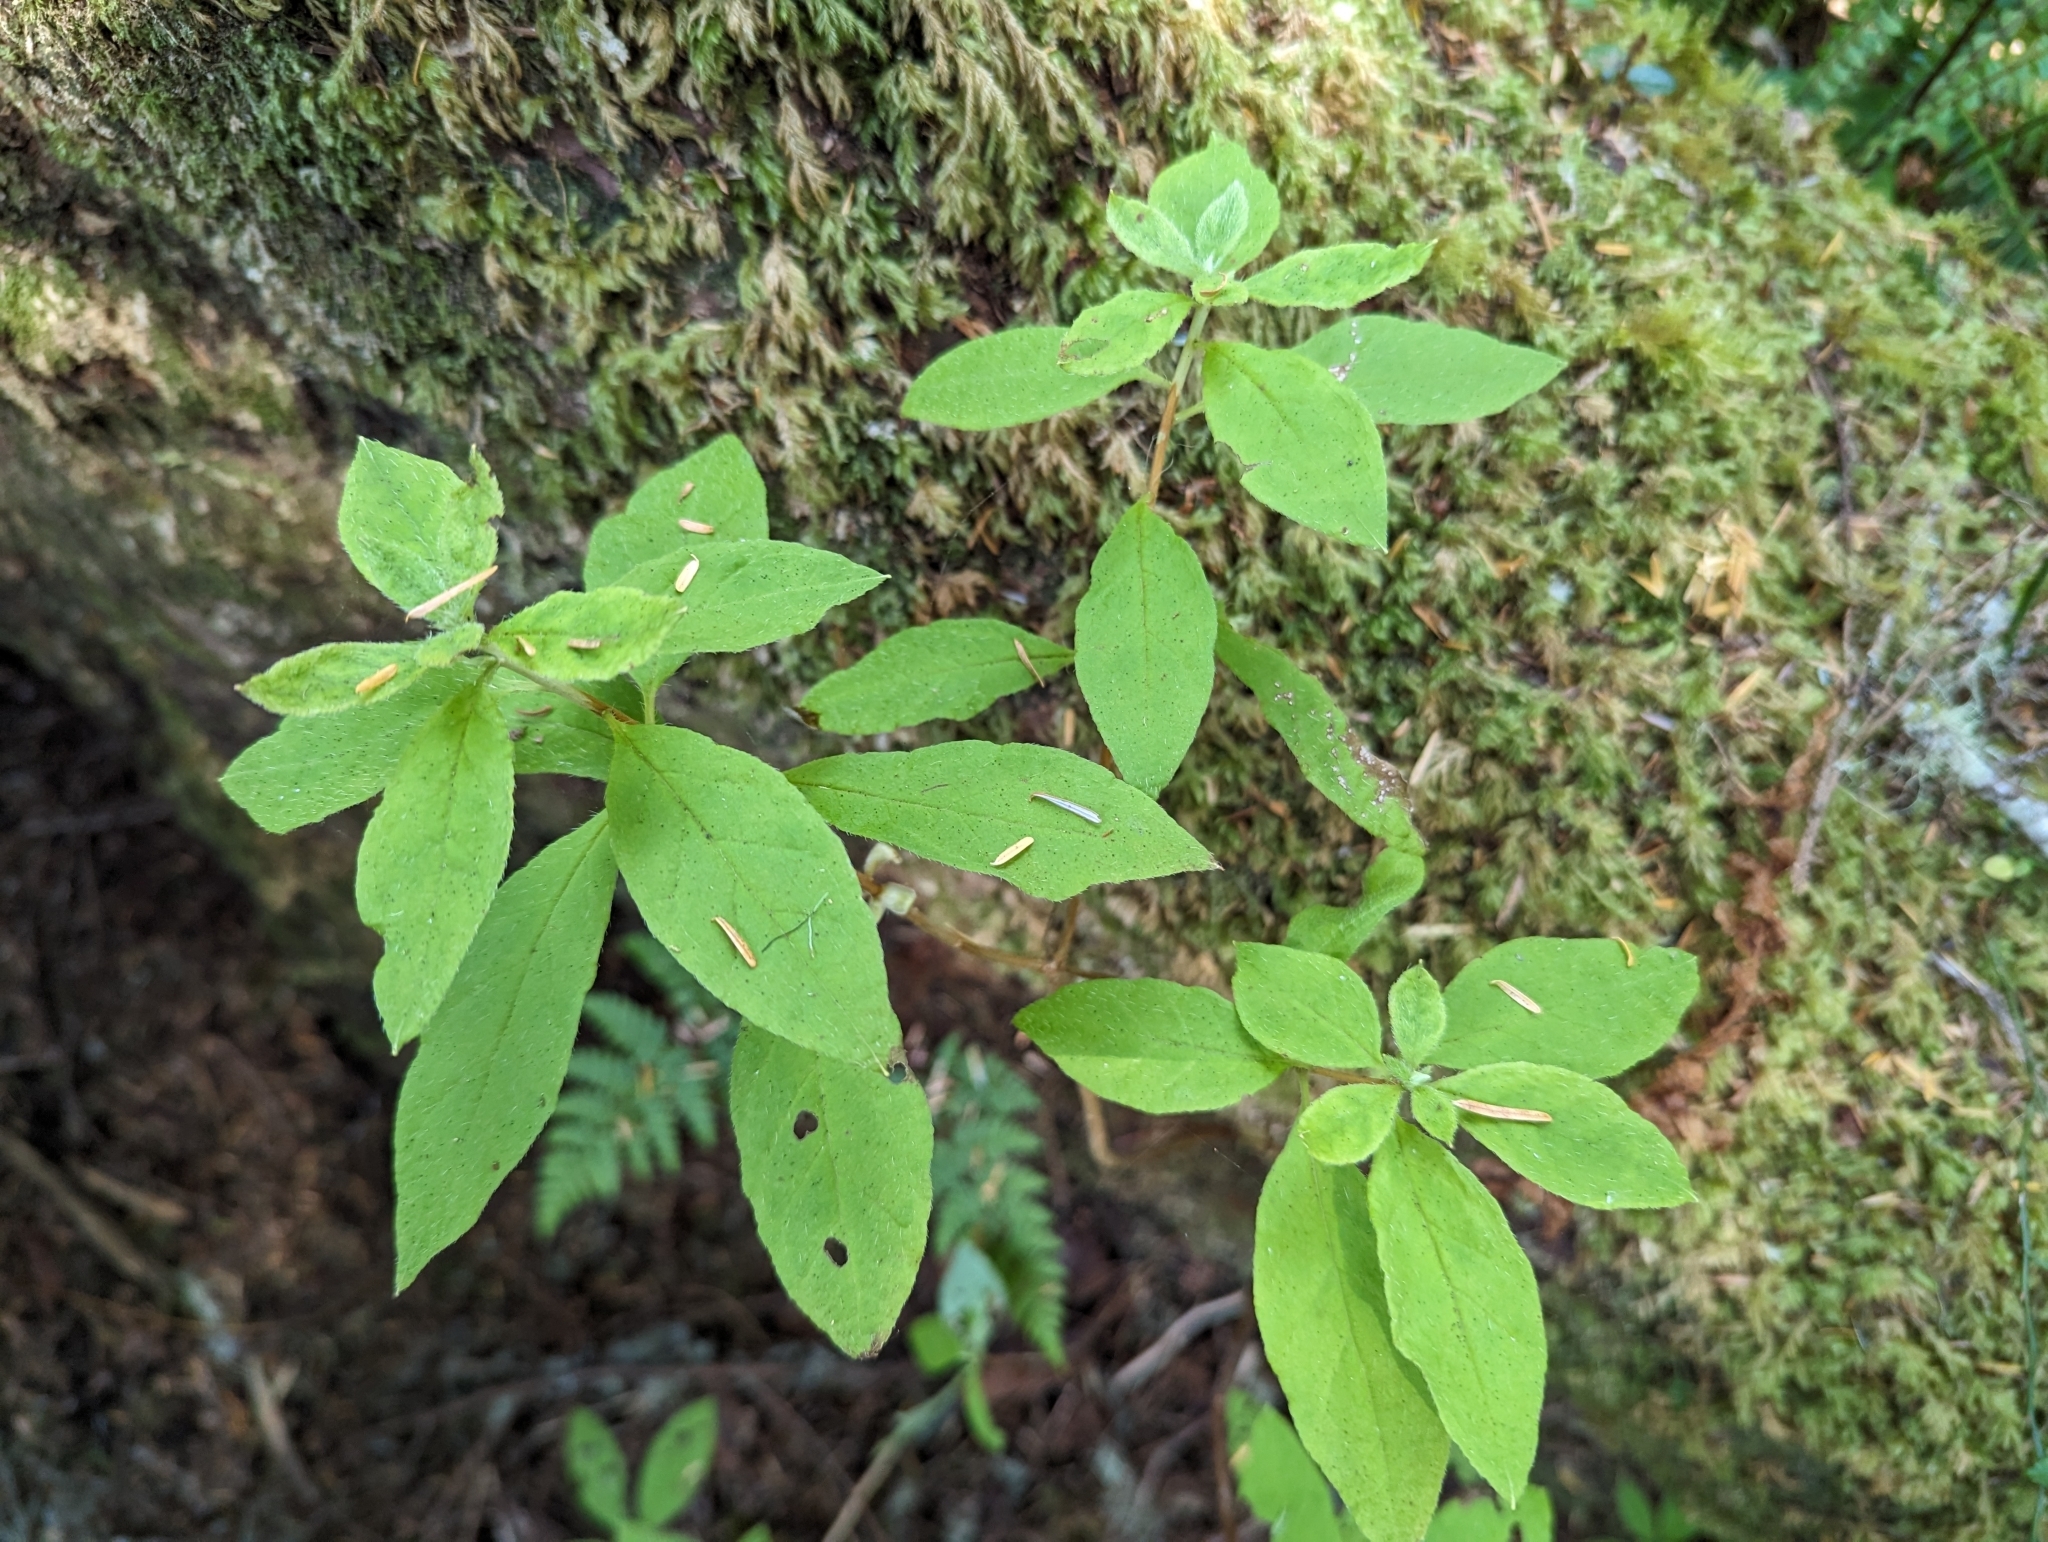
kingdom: Plantae
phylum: Tracheophyta
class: Magnoliopsida
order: Ericales
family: Ericaceae
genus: Rhododendron
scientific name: Rhododendron menziesii
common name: Pacific menziesia
